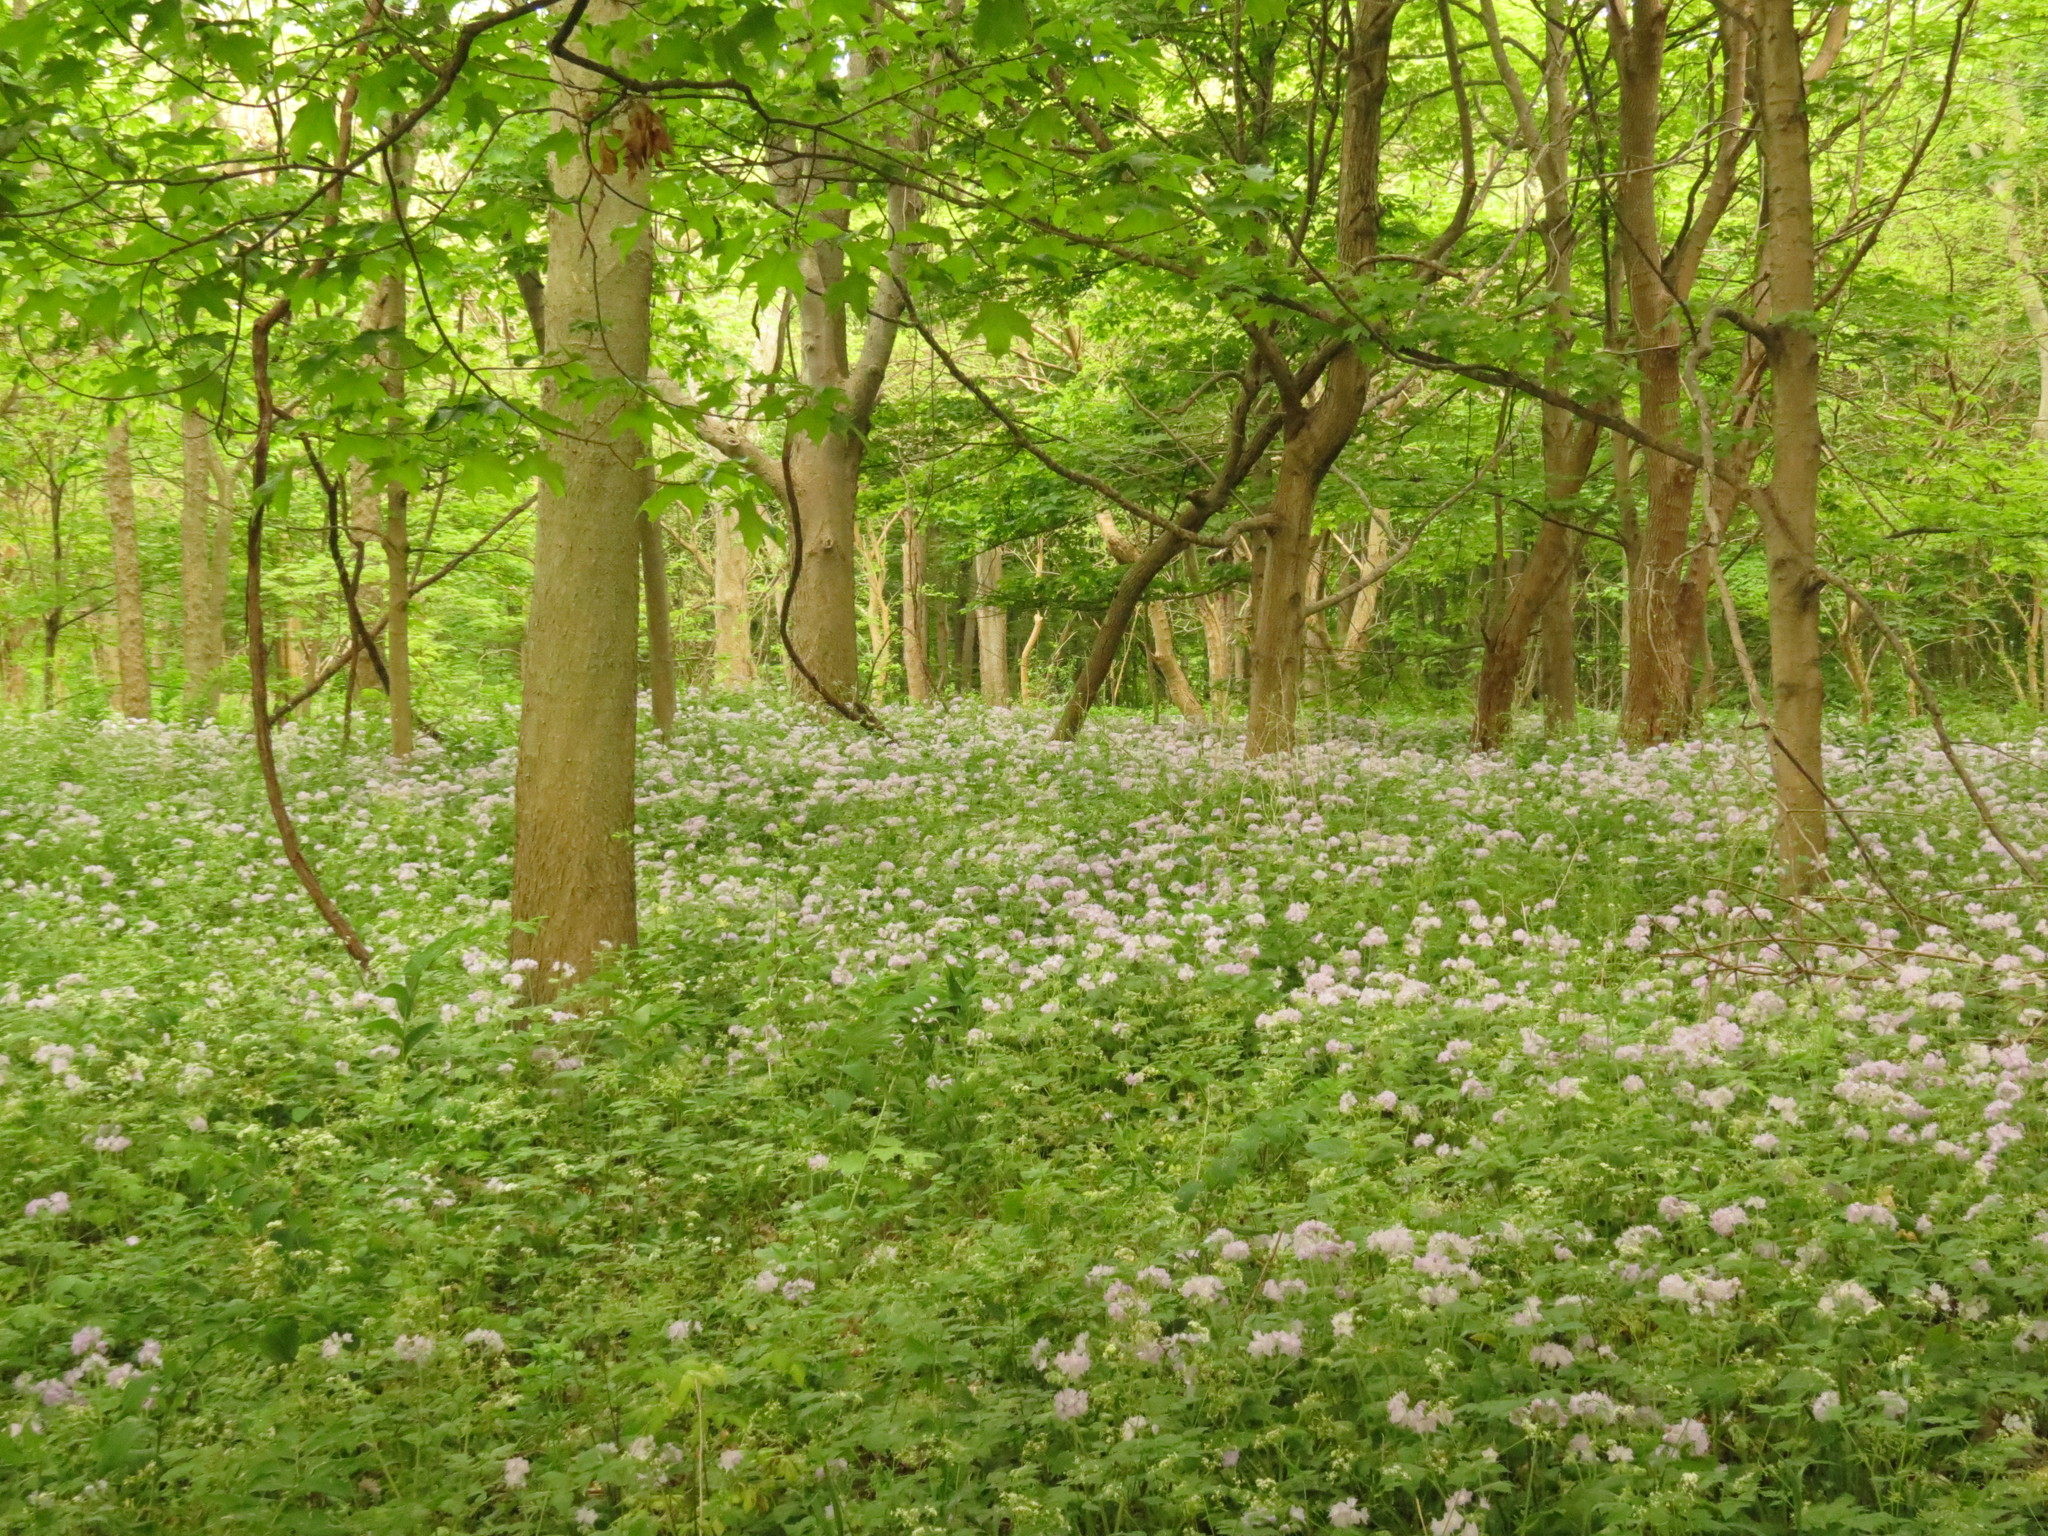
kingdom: Plantae
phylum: Tracheophyta
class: Magnoliopsida
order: Boraginales
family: Hydrophyllaceae
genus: Hydrophyllum
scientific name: Hydrophyllum appendiculatum
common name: Appendaged waterleaf
